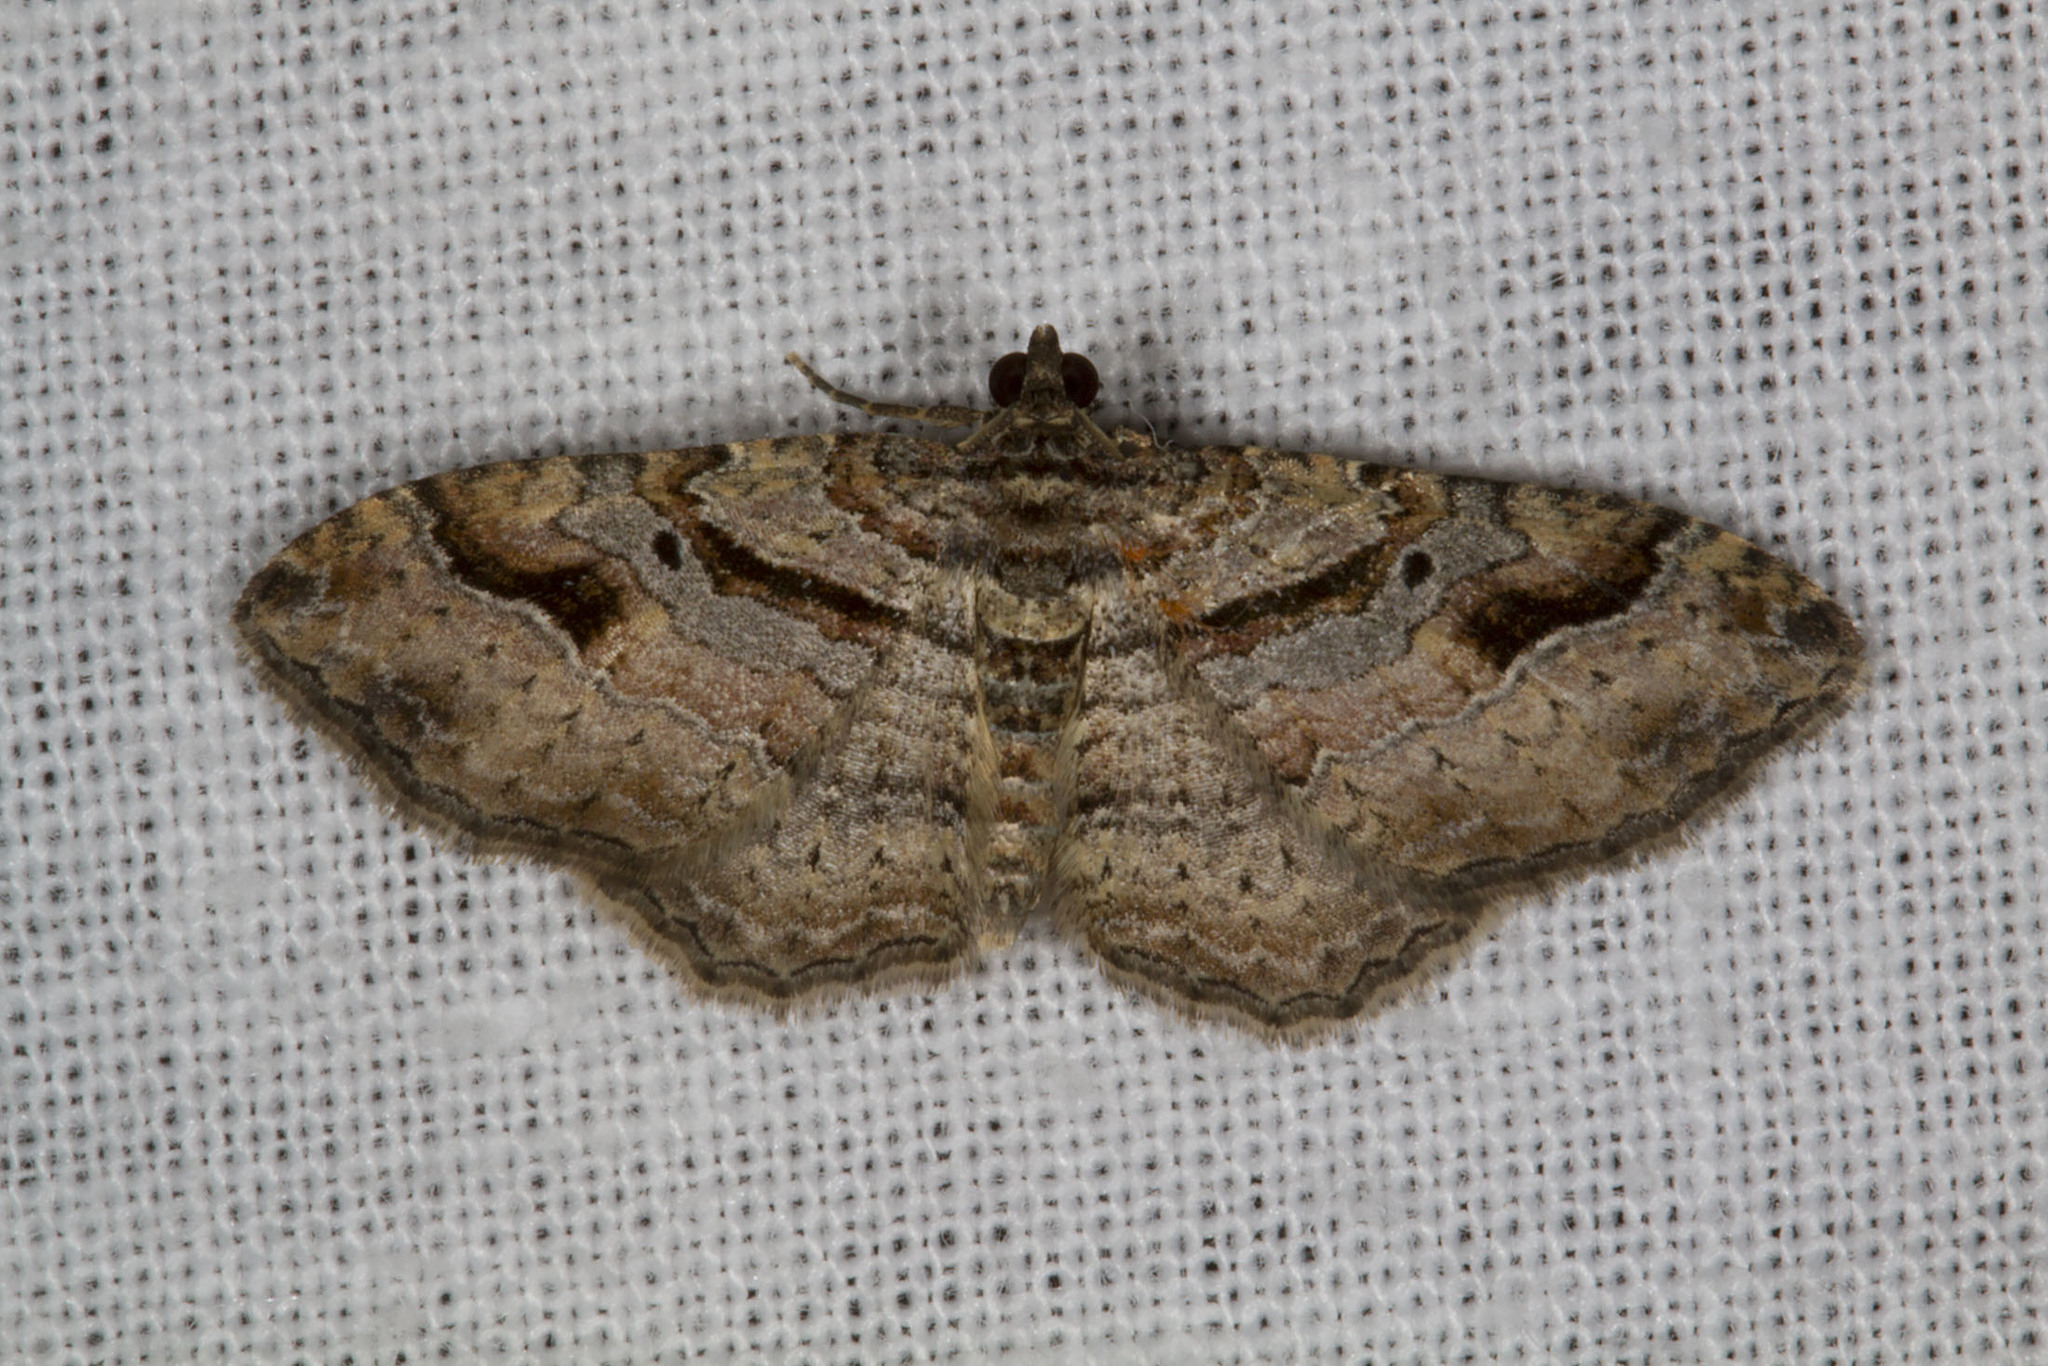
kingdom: Animalia
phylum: Arthropoda
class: Insecta
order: Lepidoptera
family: Geometridae
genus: Costaconvexa
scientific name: Costaconvexa centrostrigaria
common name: Bent-line carpet
